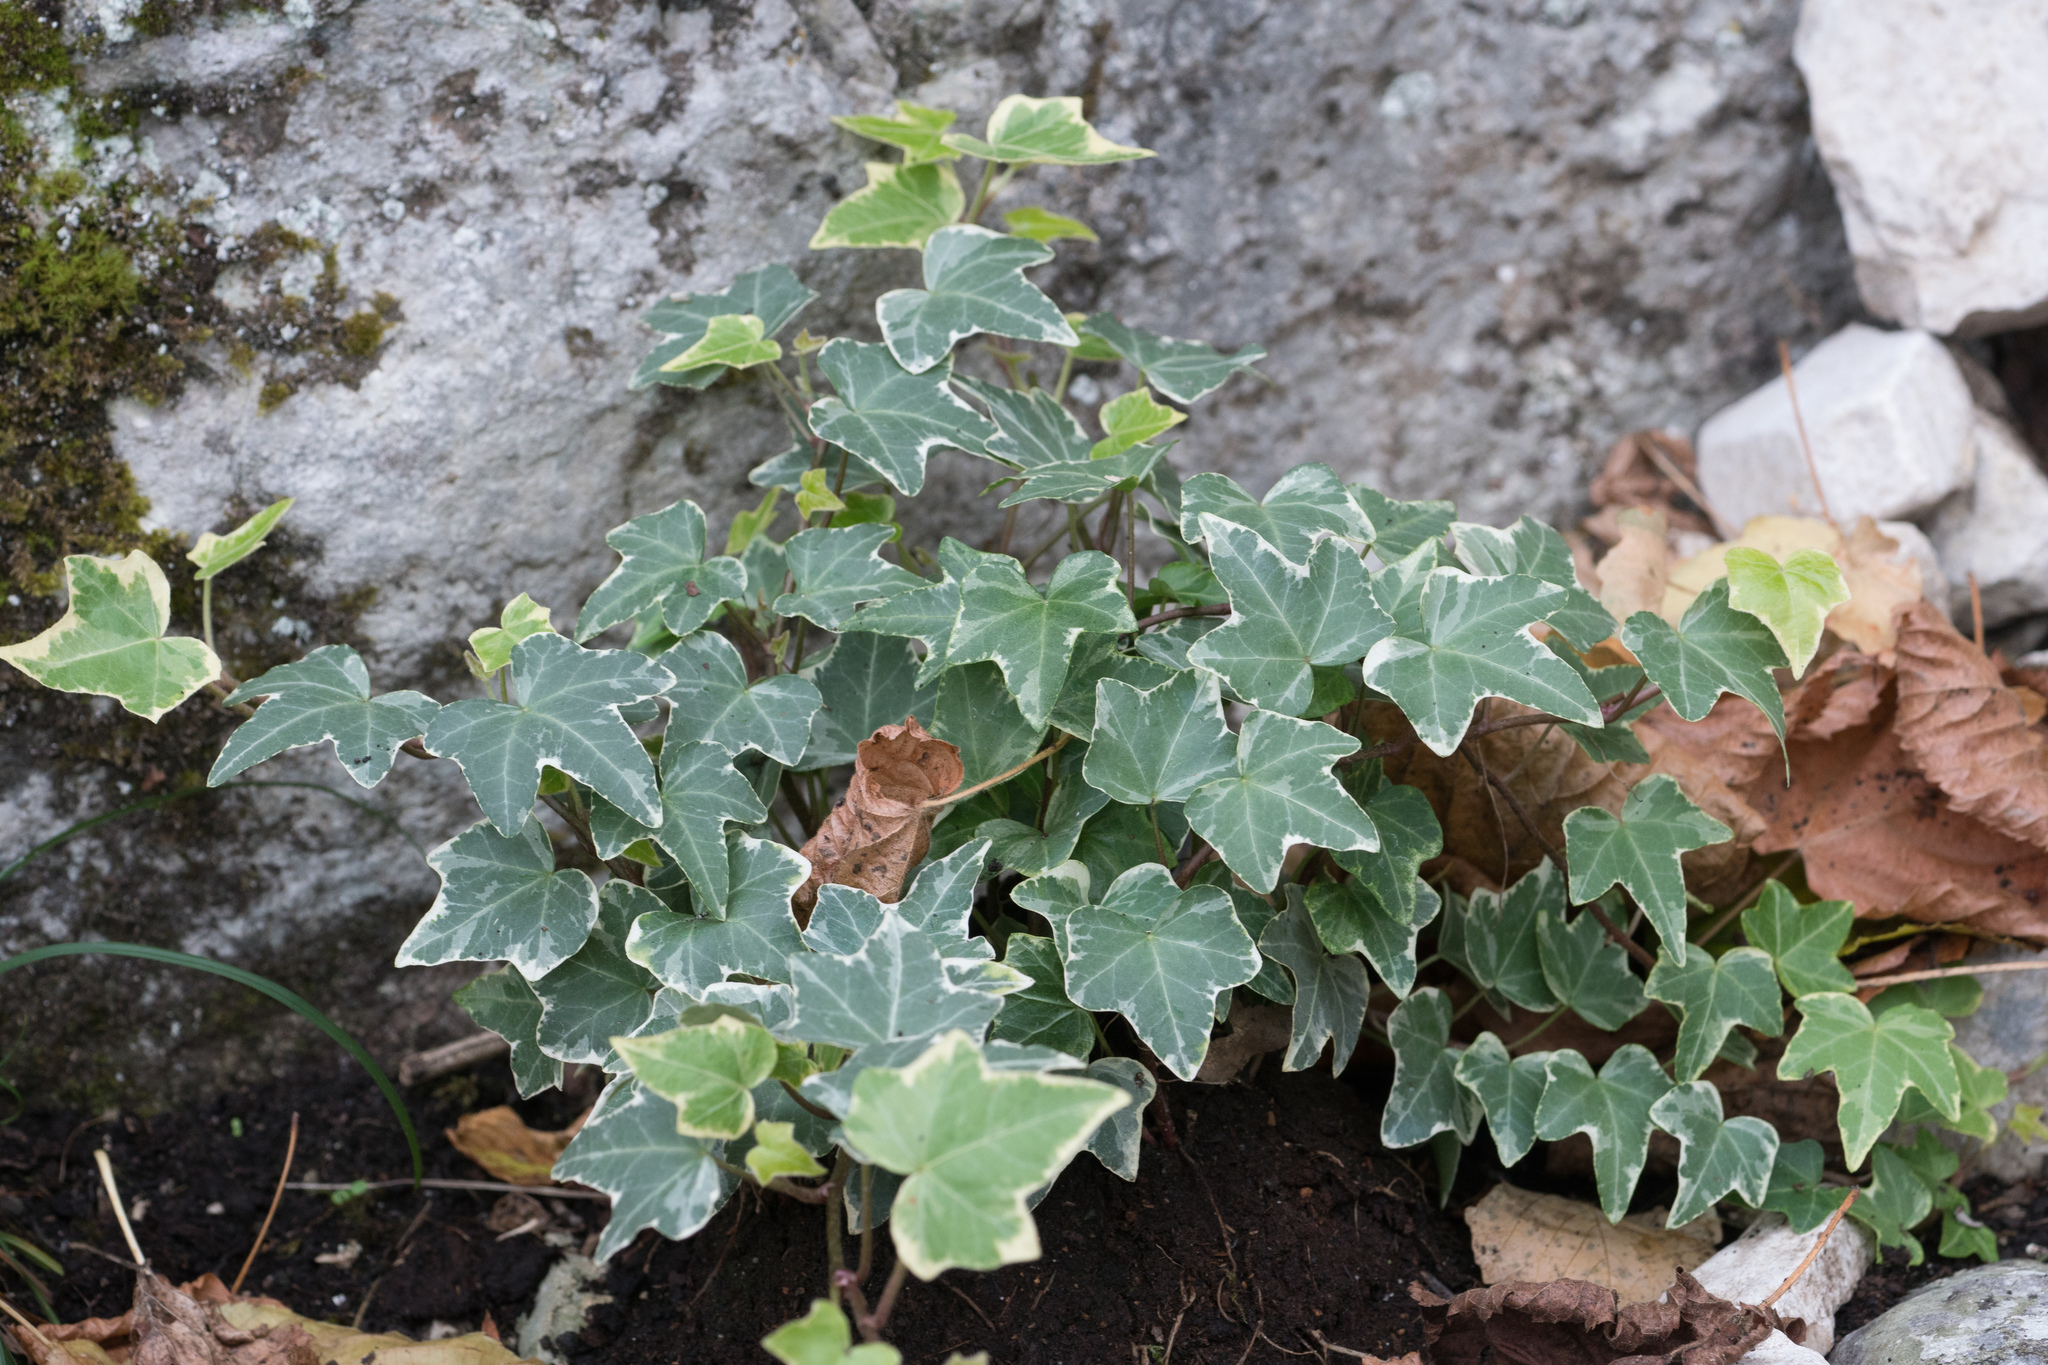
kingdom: Plantae
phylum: Tracheophyta
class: Magnoliopsida
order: Apiales
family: Araliaceae
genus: Hedera
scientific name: Hedera helix
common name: Ivy
